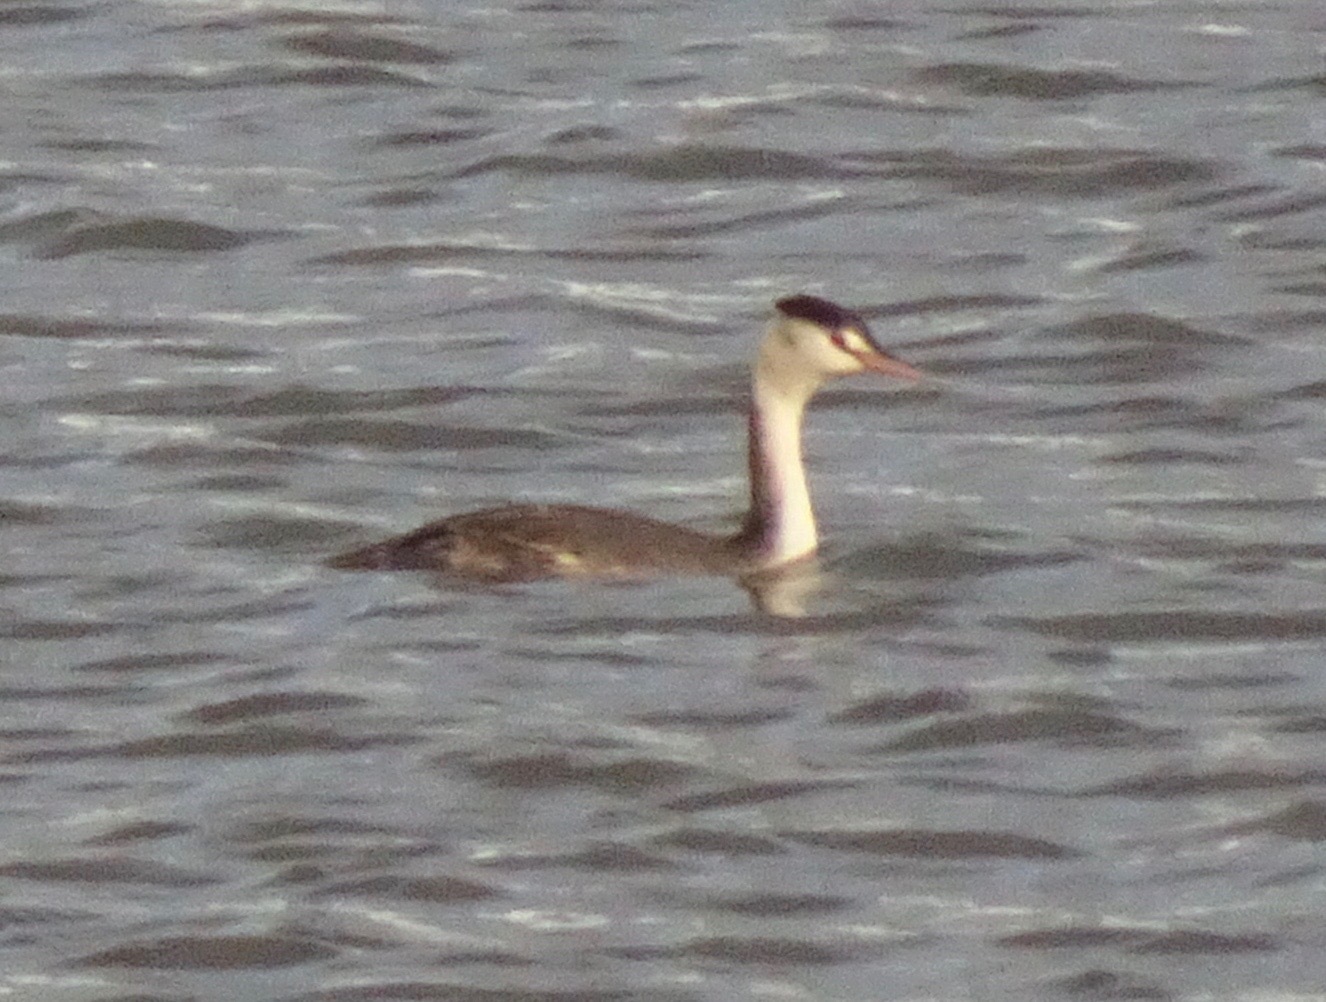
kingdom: Animalia
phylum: Chordata
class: Aves
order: Podicipediformes
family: Podicipedidae
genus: Podiceps
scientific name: Podiceps cristatus
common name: Great crested grebe
